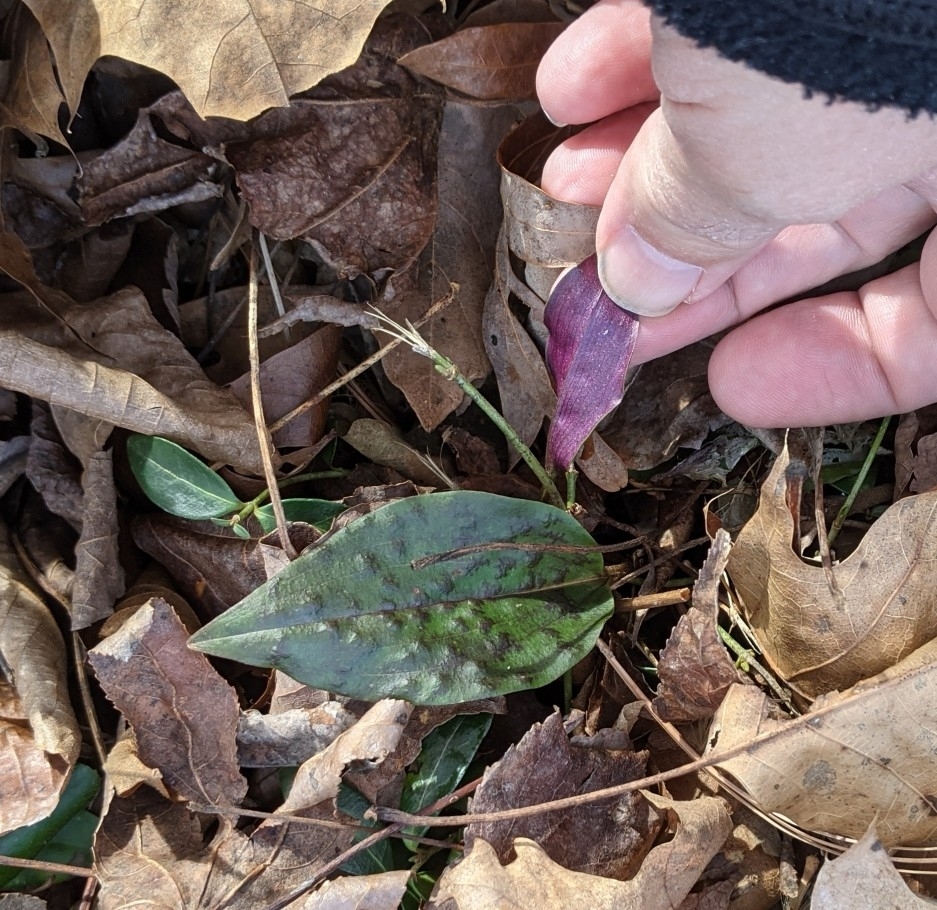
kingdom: Plantae
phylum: Tracheophyta
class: Liliopsida
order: Asparagales
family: Orchidaceae
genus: Tipularia
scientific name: Tipularia discolor
